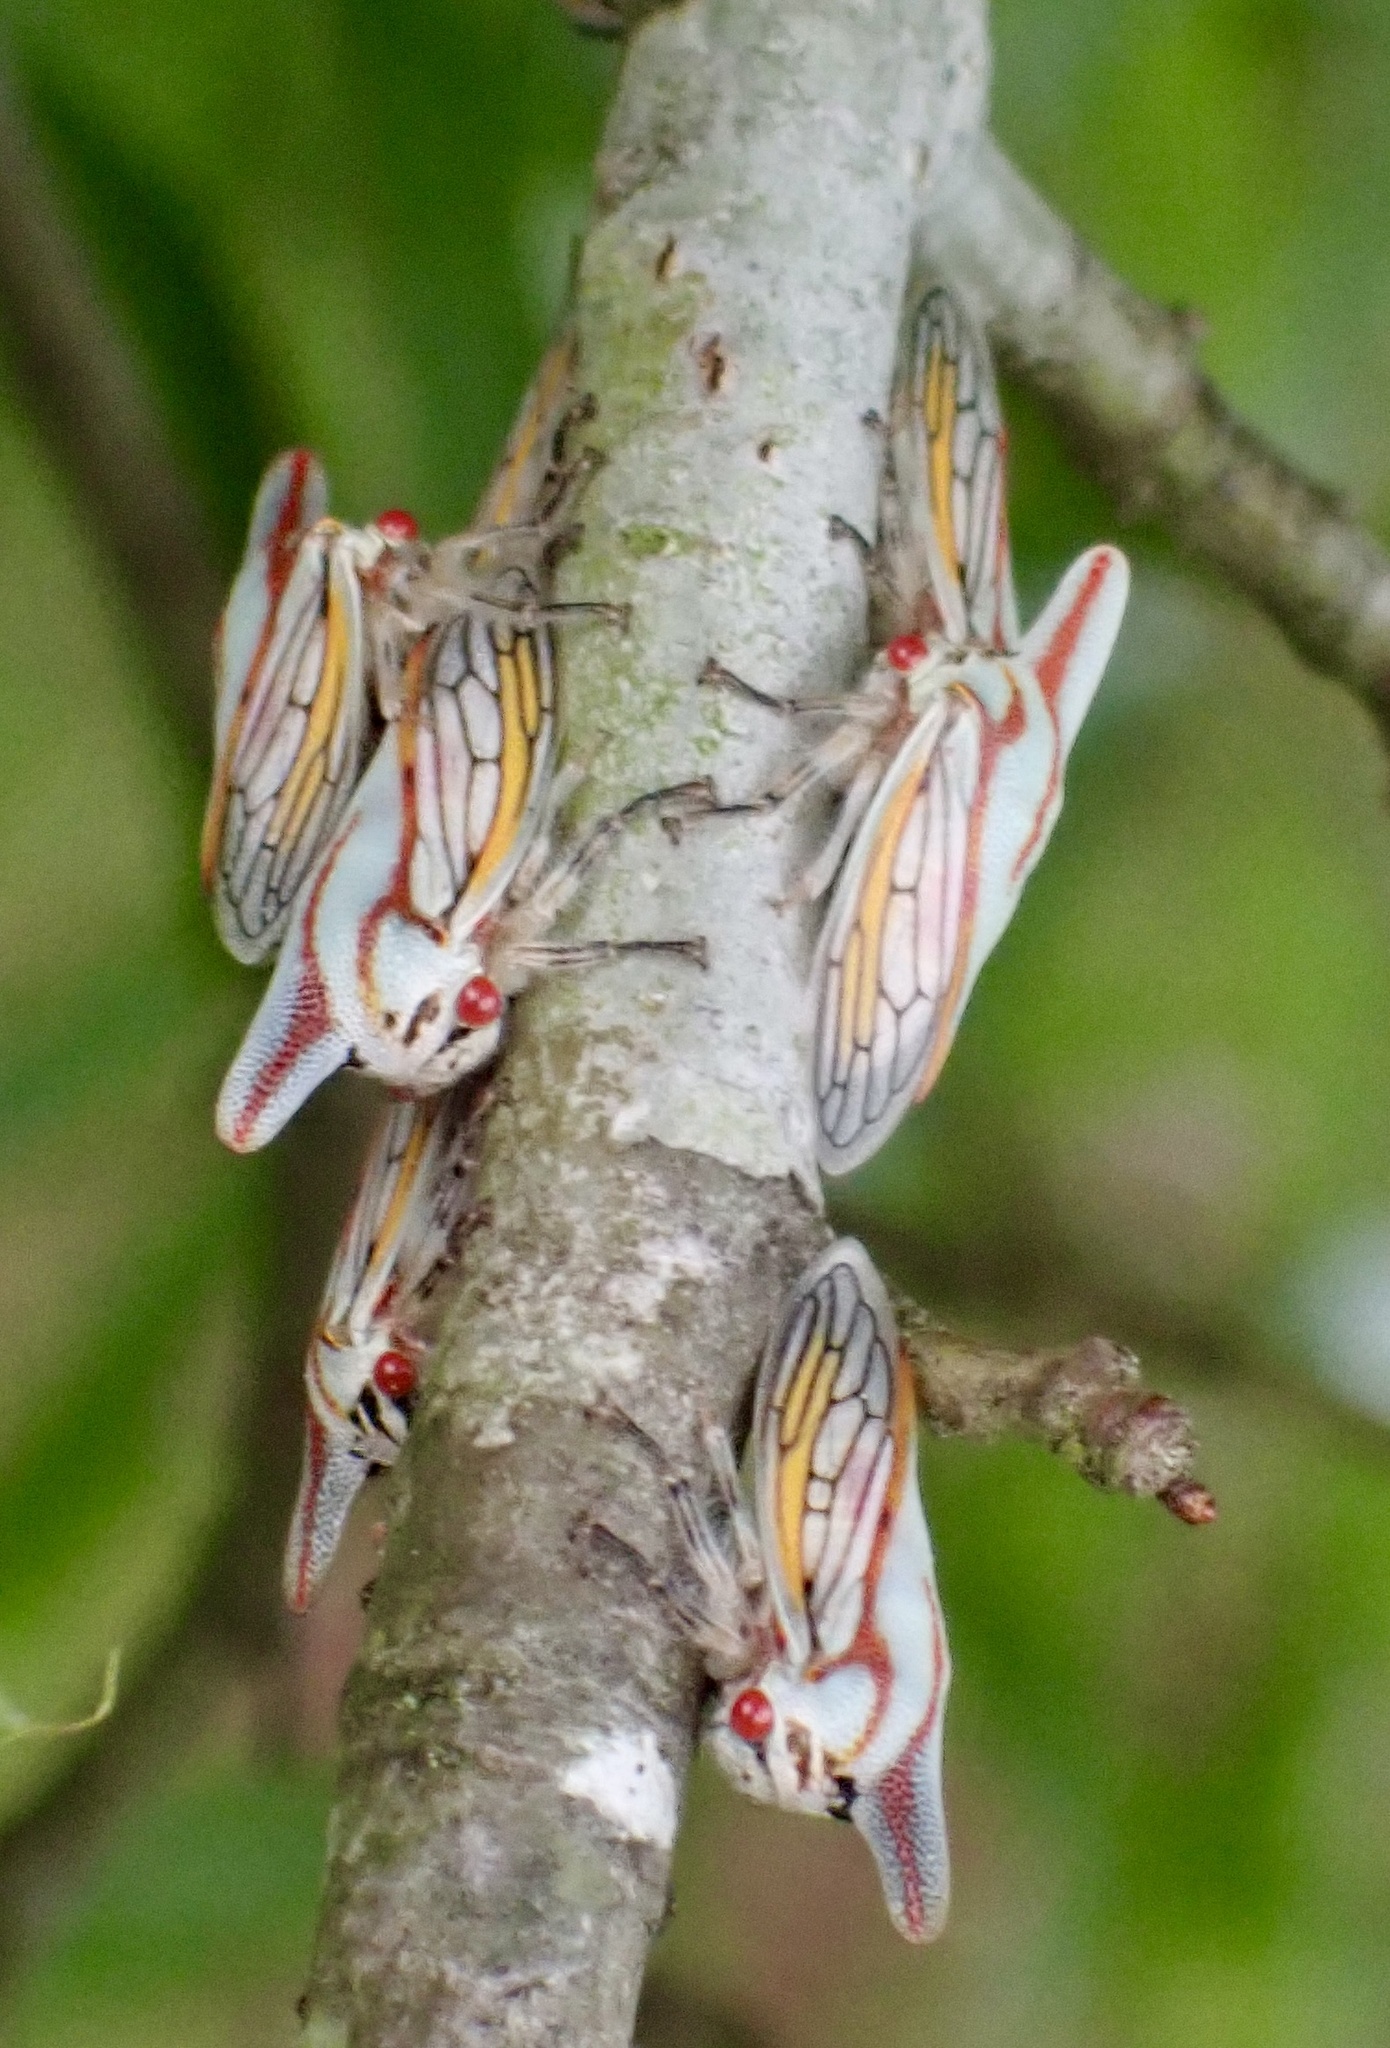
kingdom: Animalia
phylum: Arthropoda
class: Insecta
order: Hemiptera
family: Membracidae
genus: Platycotis
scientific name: Platycotis vittatus
